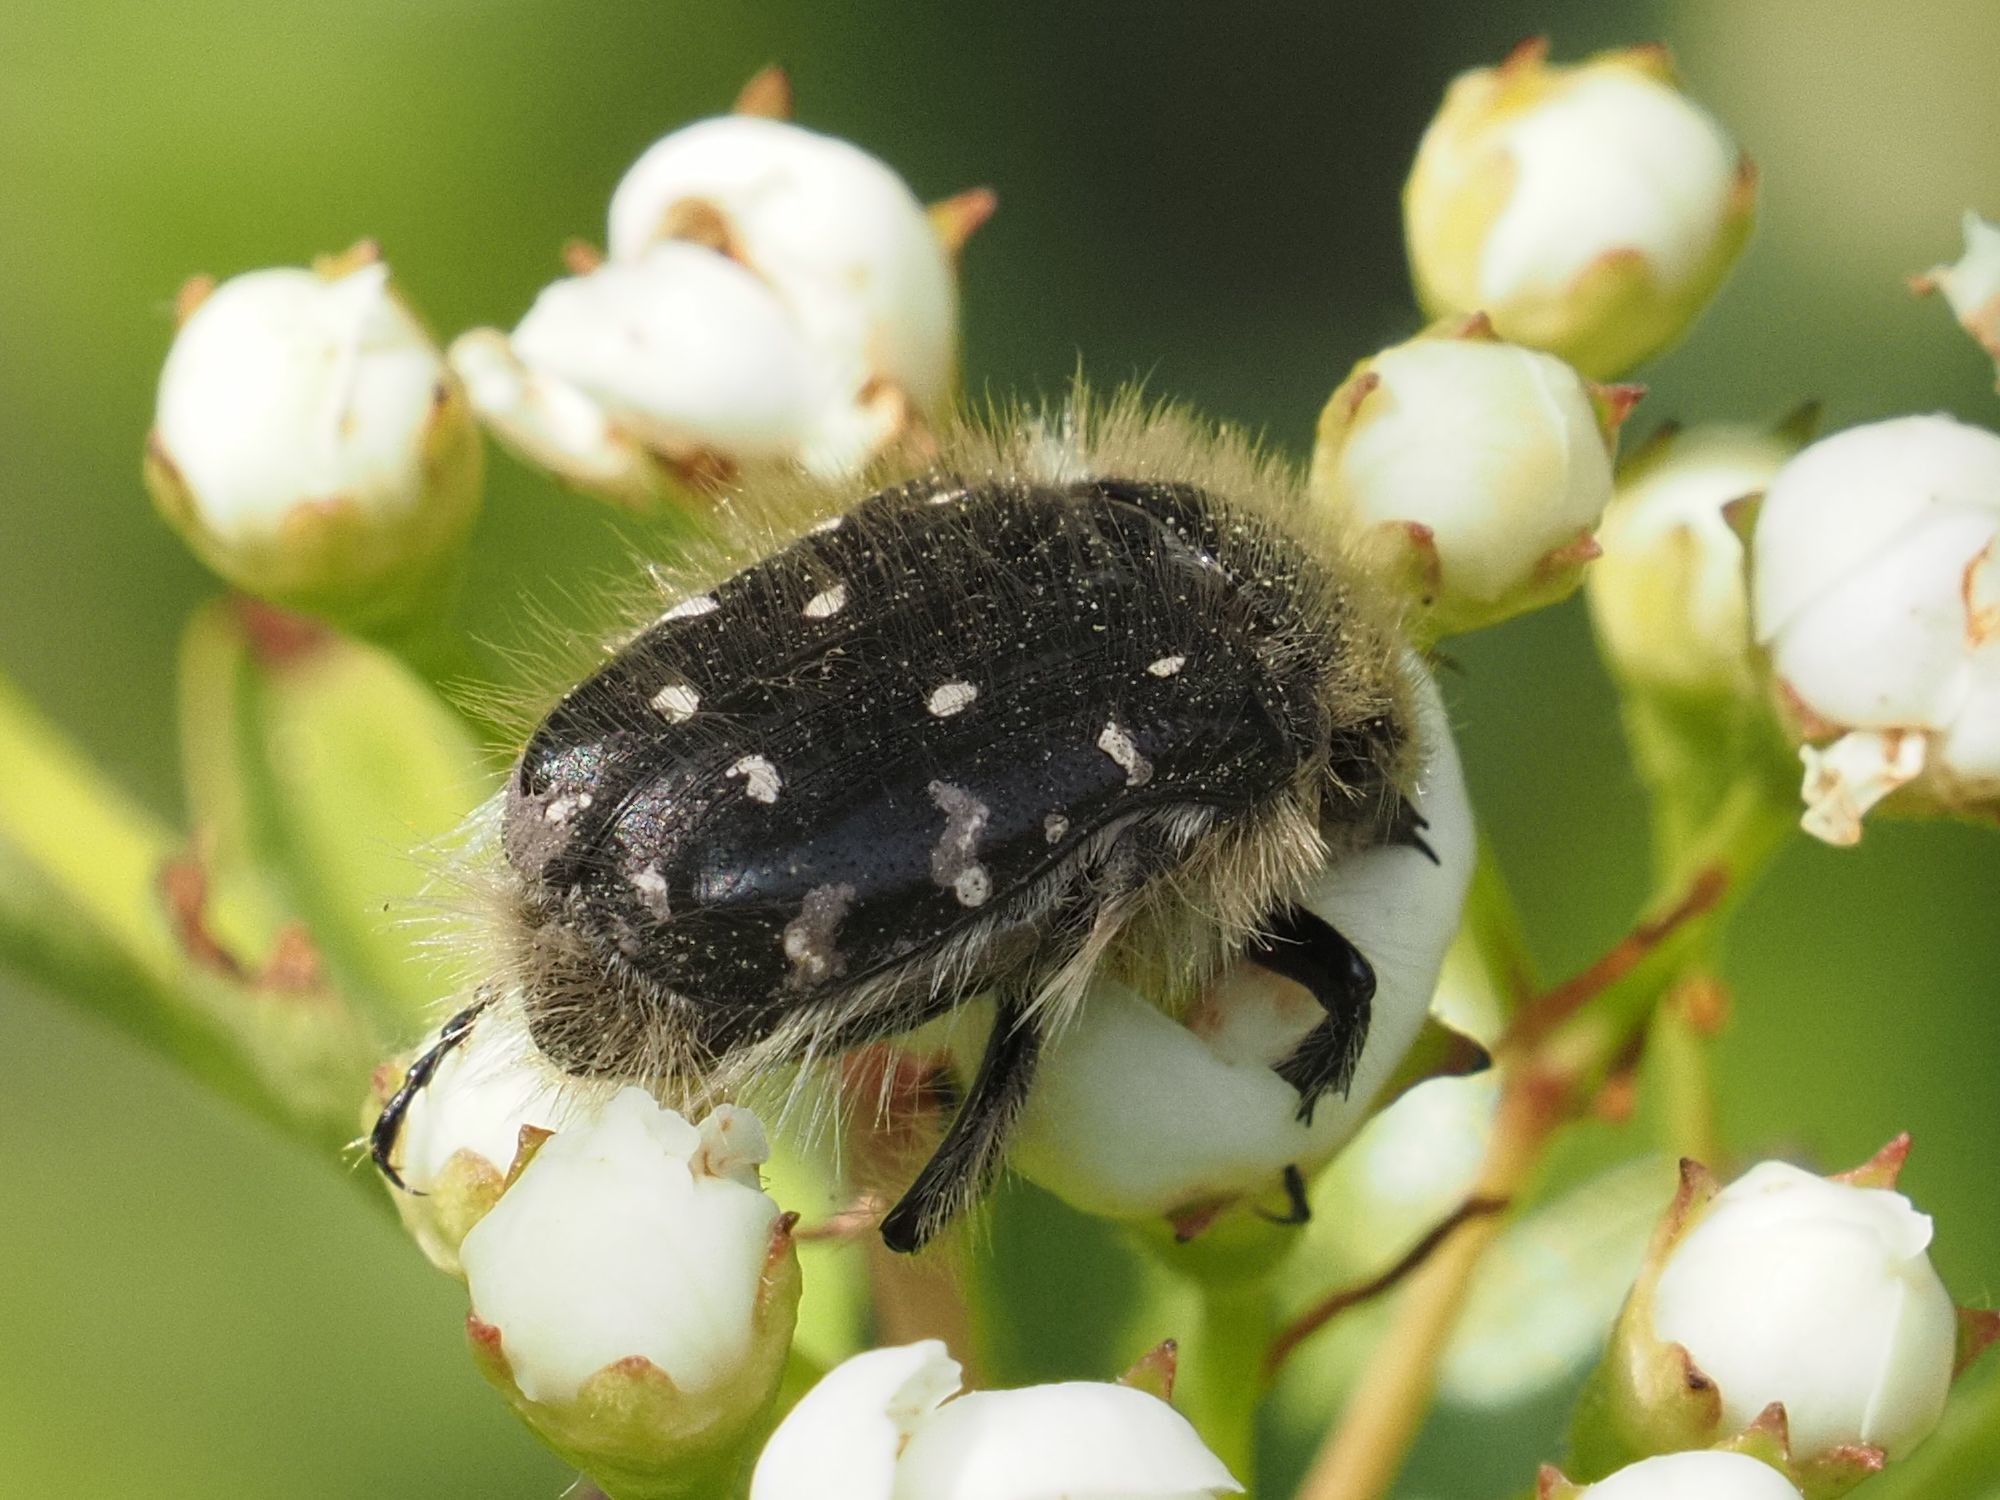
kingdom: Animalia
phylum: Arthropoda
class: Insecta
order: Coleoptera
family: Scarabaeidae
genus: Tropinota
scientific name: Tropinota hirta
